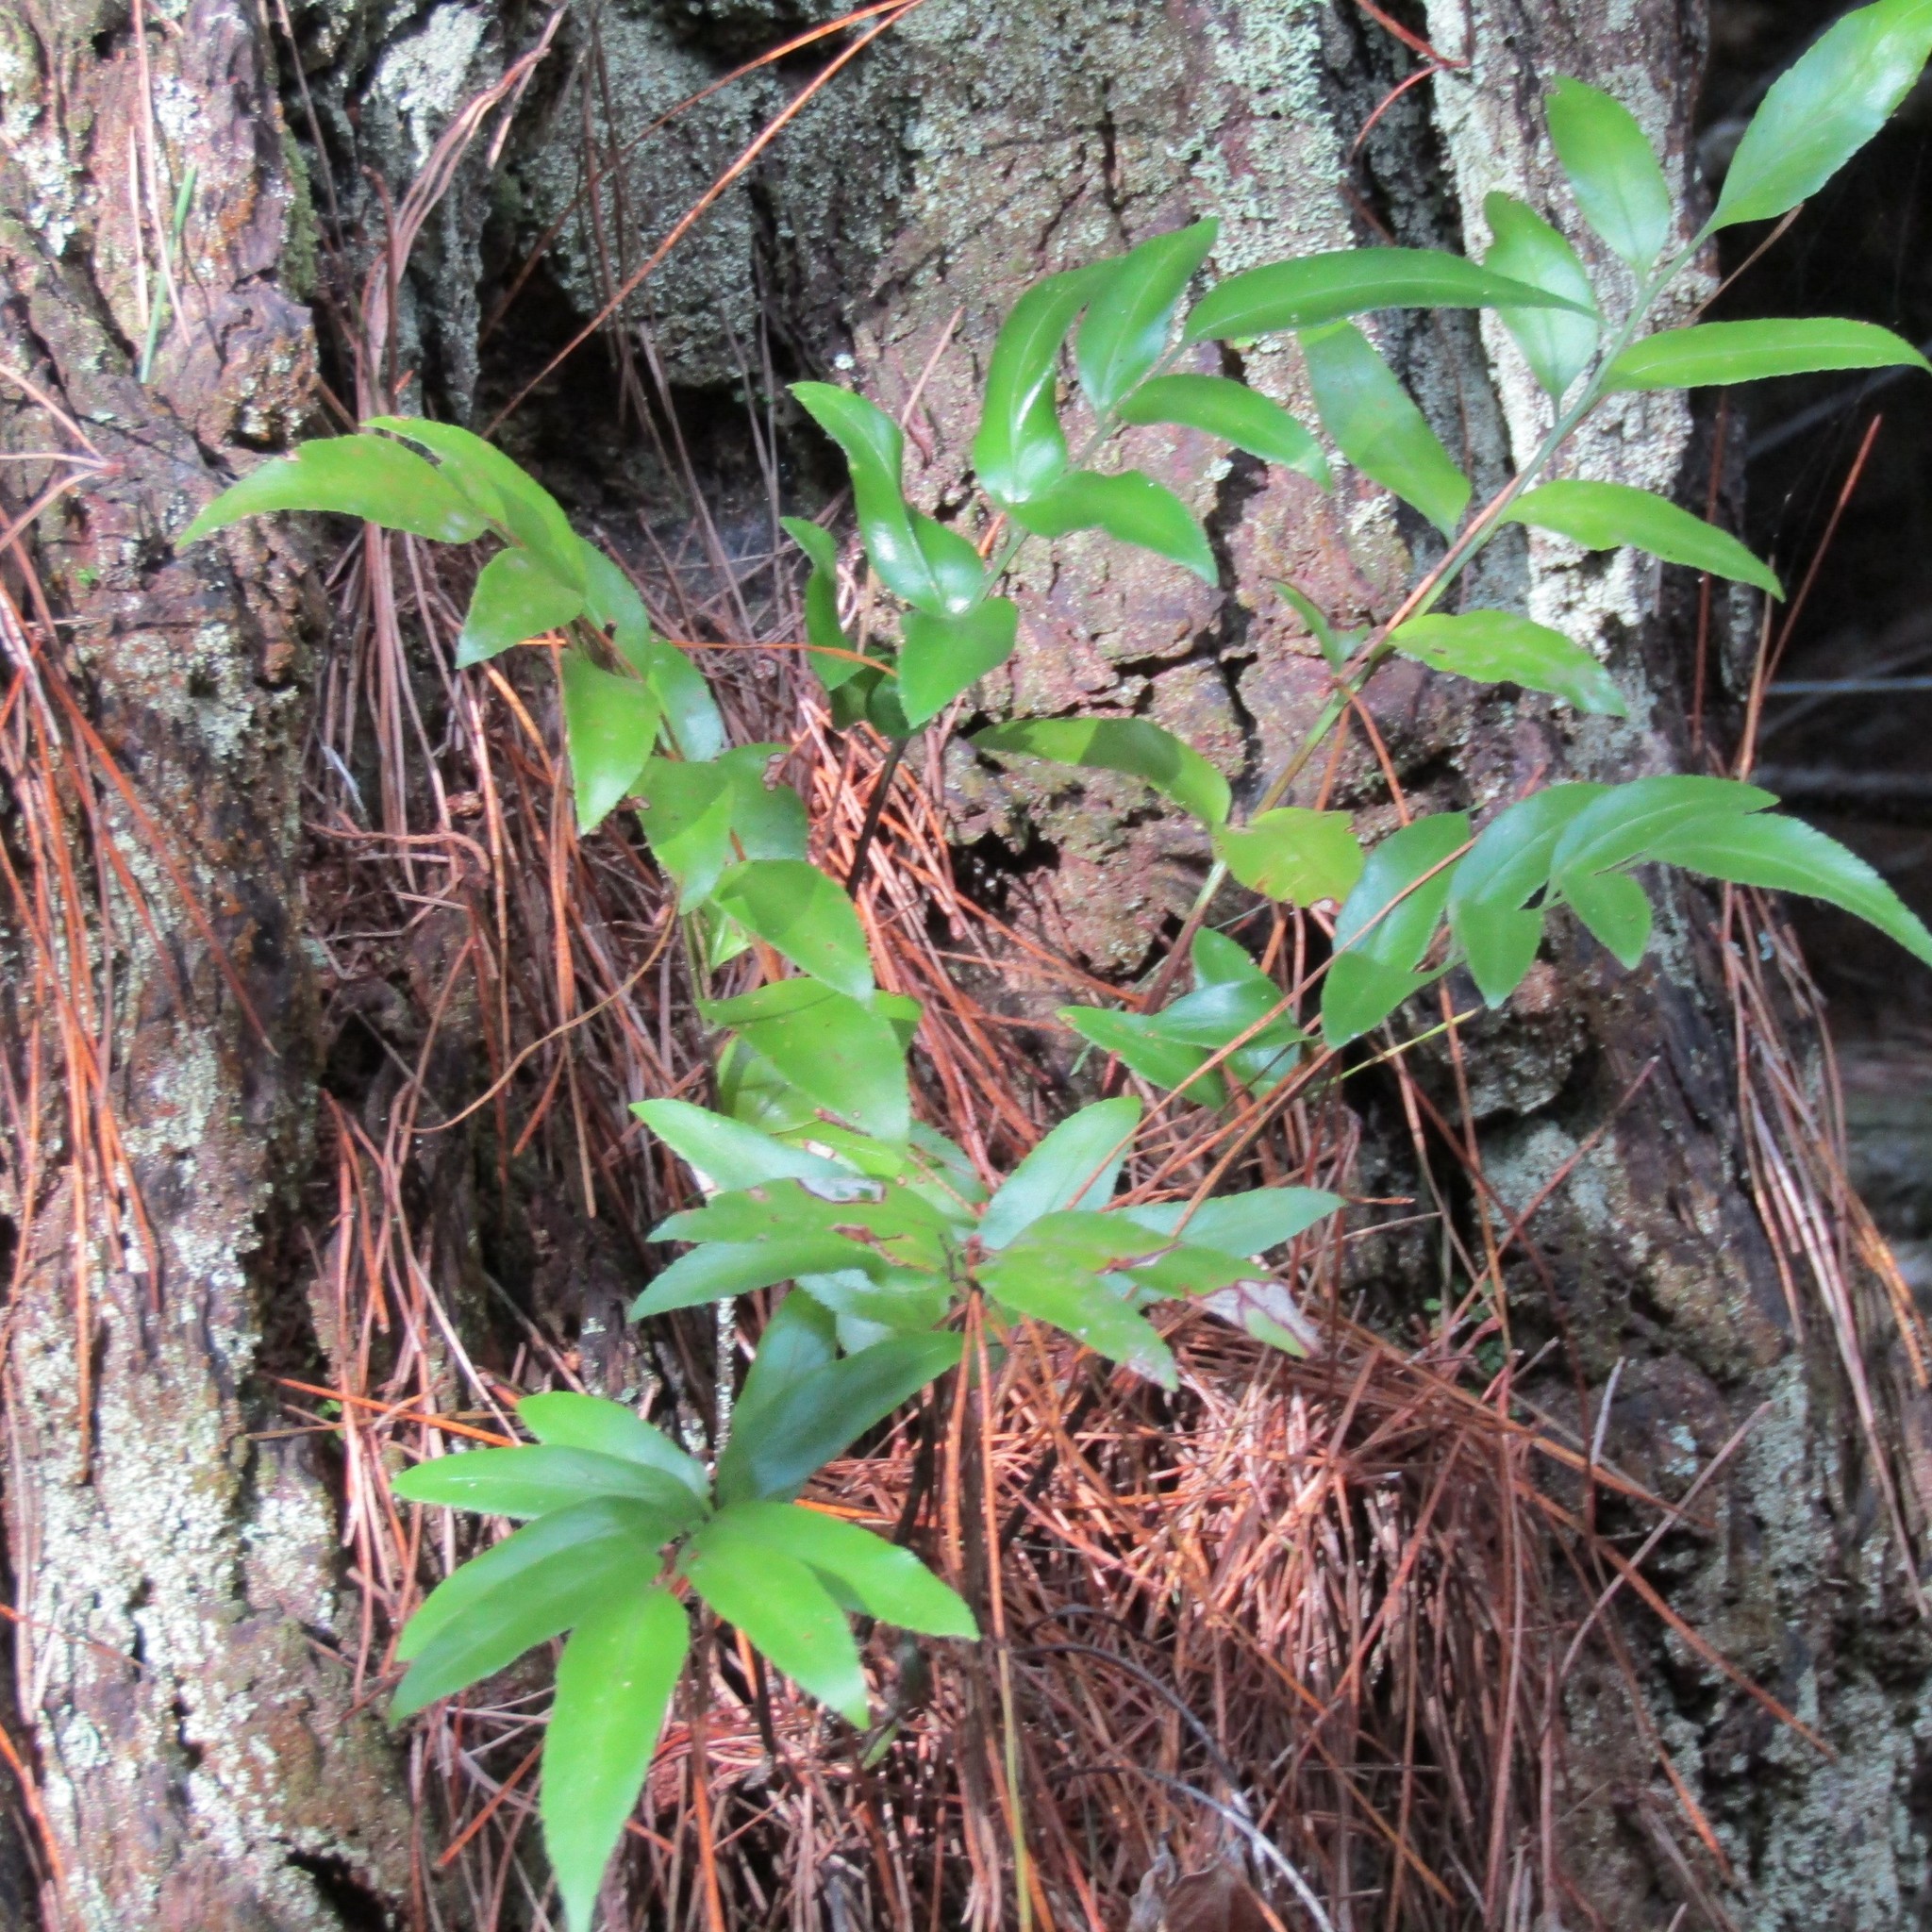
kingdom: Plantae
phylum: Tracheophyta
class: Polypodiopsida
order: Polypodiales
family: Aspleniaceae
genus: Asplenium
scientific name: Asplenium oblongifolium
